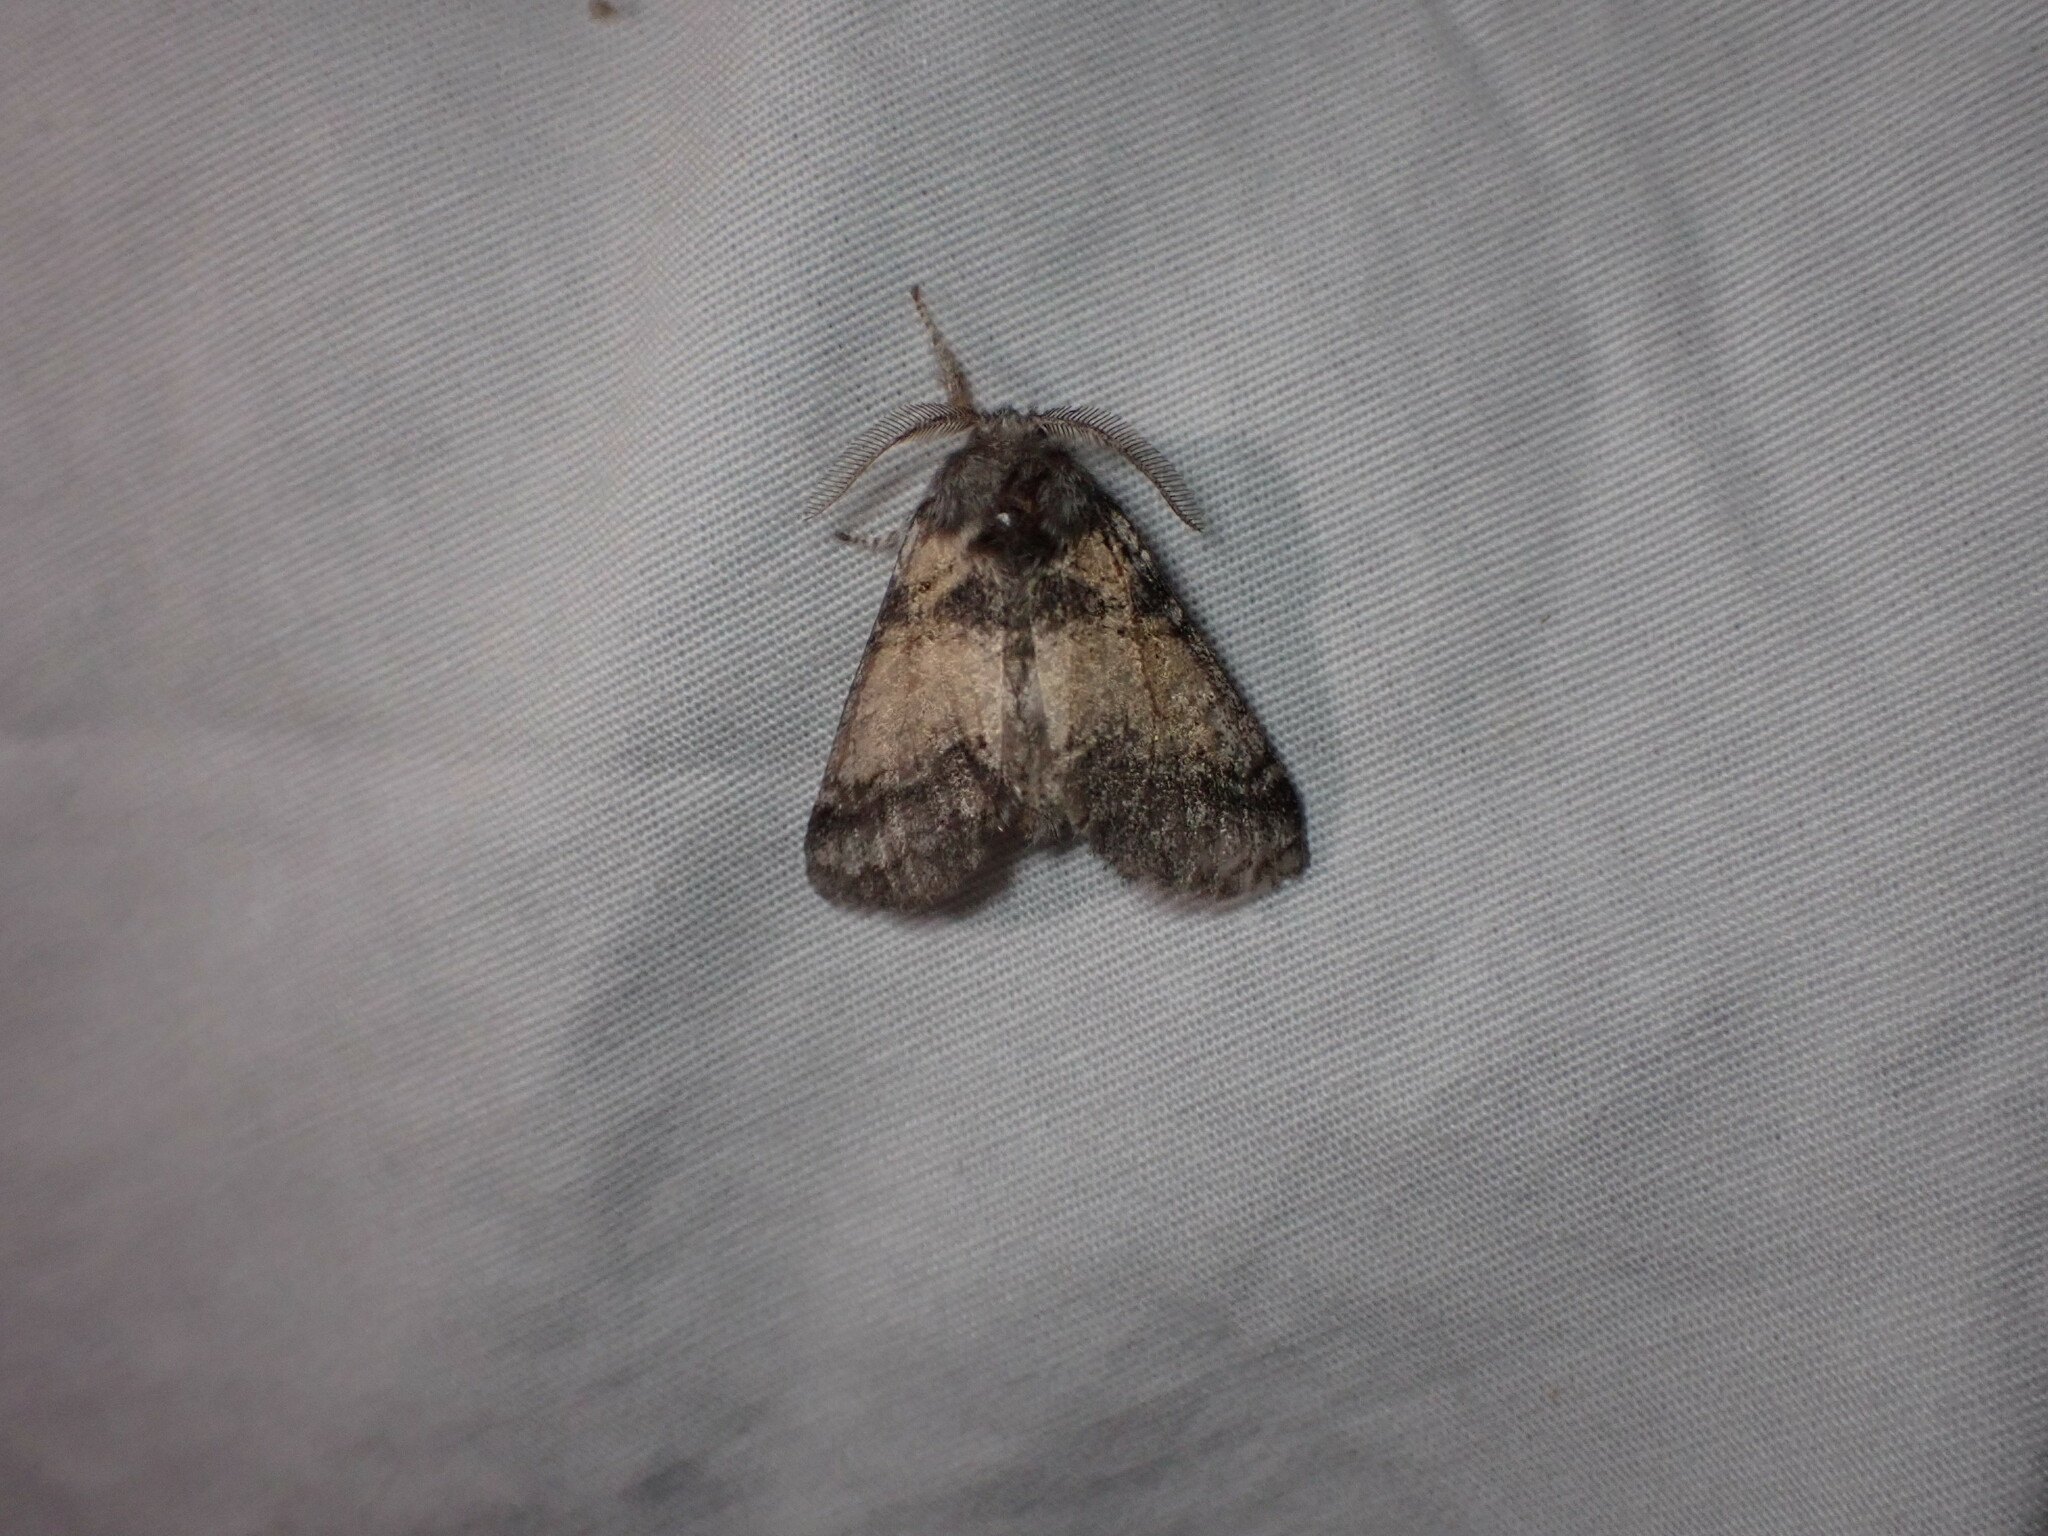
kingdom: Animalia
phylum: Arthropoda
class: Insecta
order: Lepidoptera
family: Notodontidae
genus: Gluphisia
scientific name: Gluphisia septentrionis
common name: Common gluphisia
